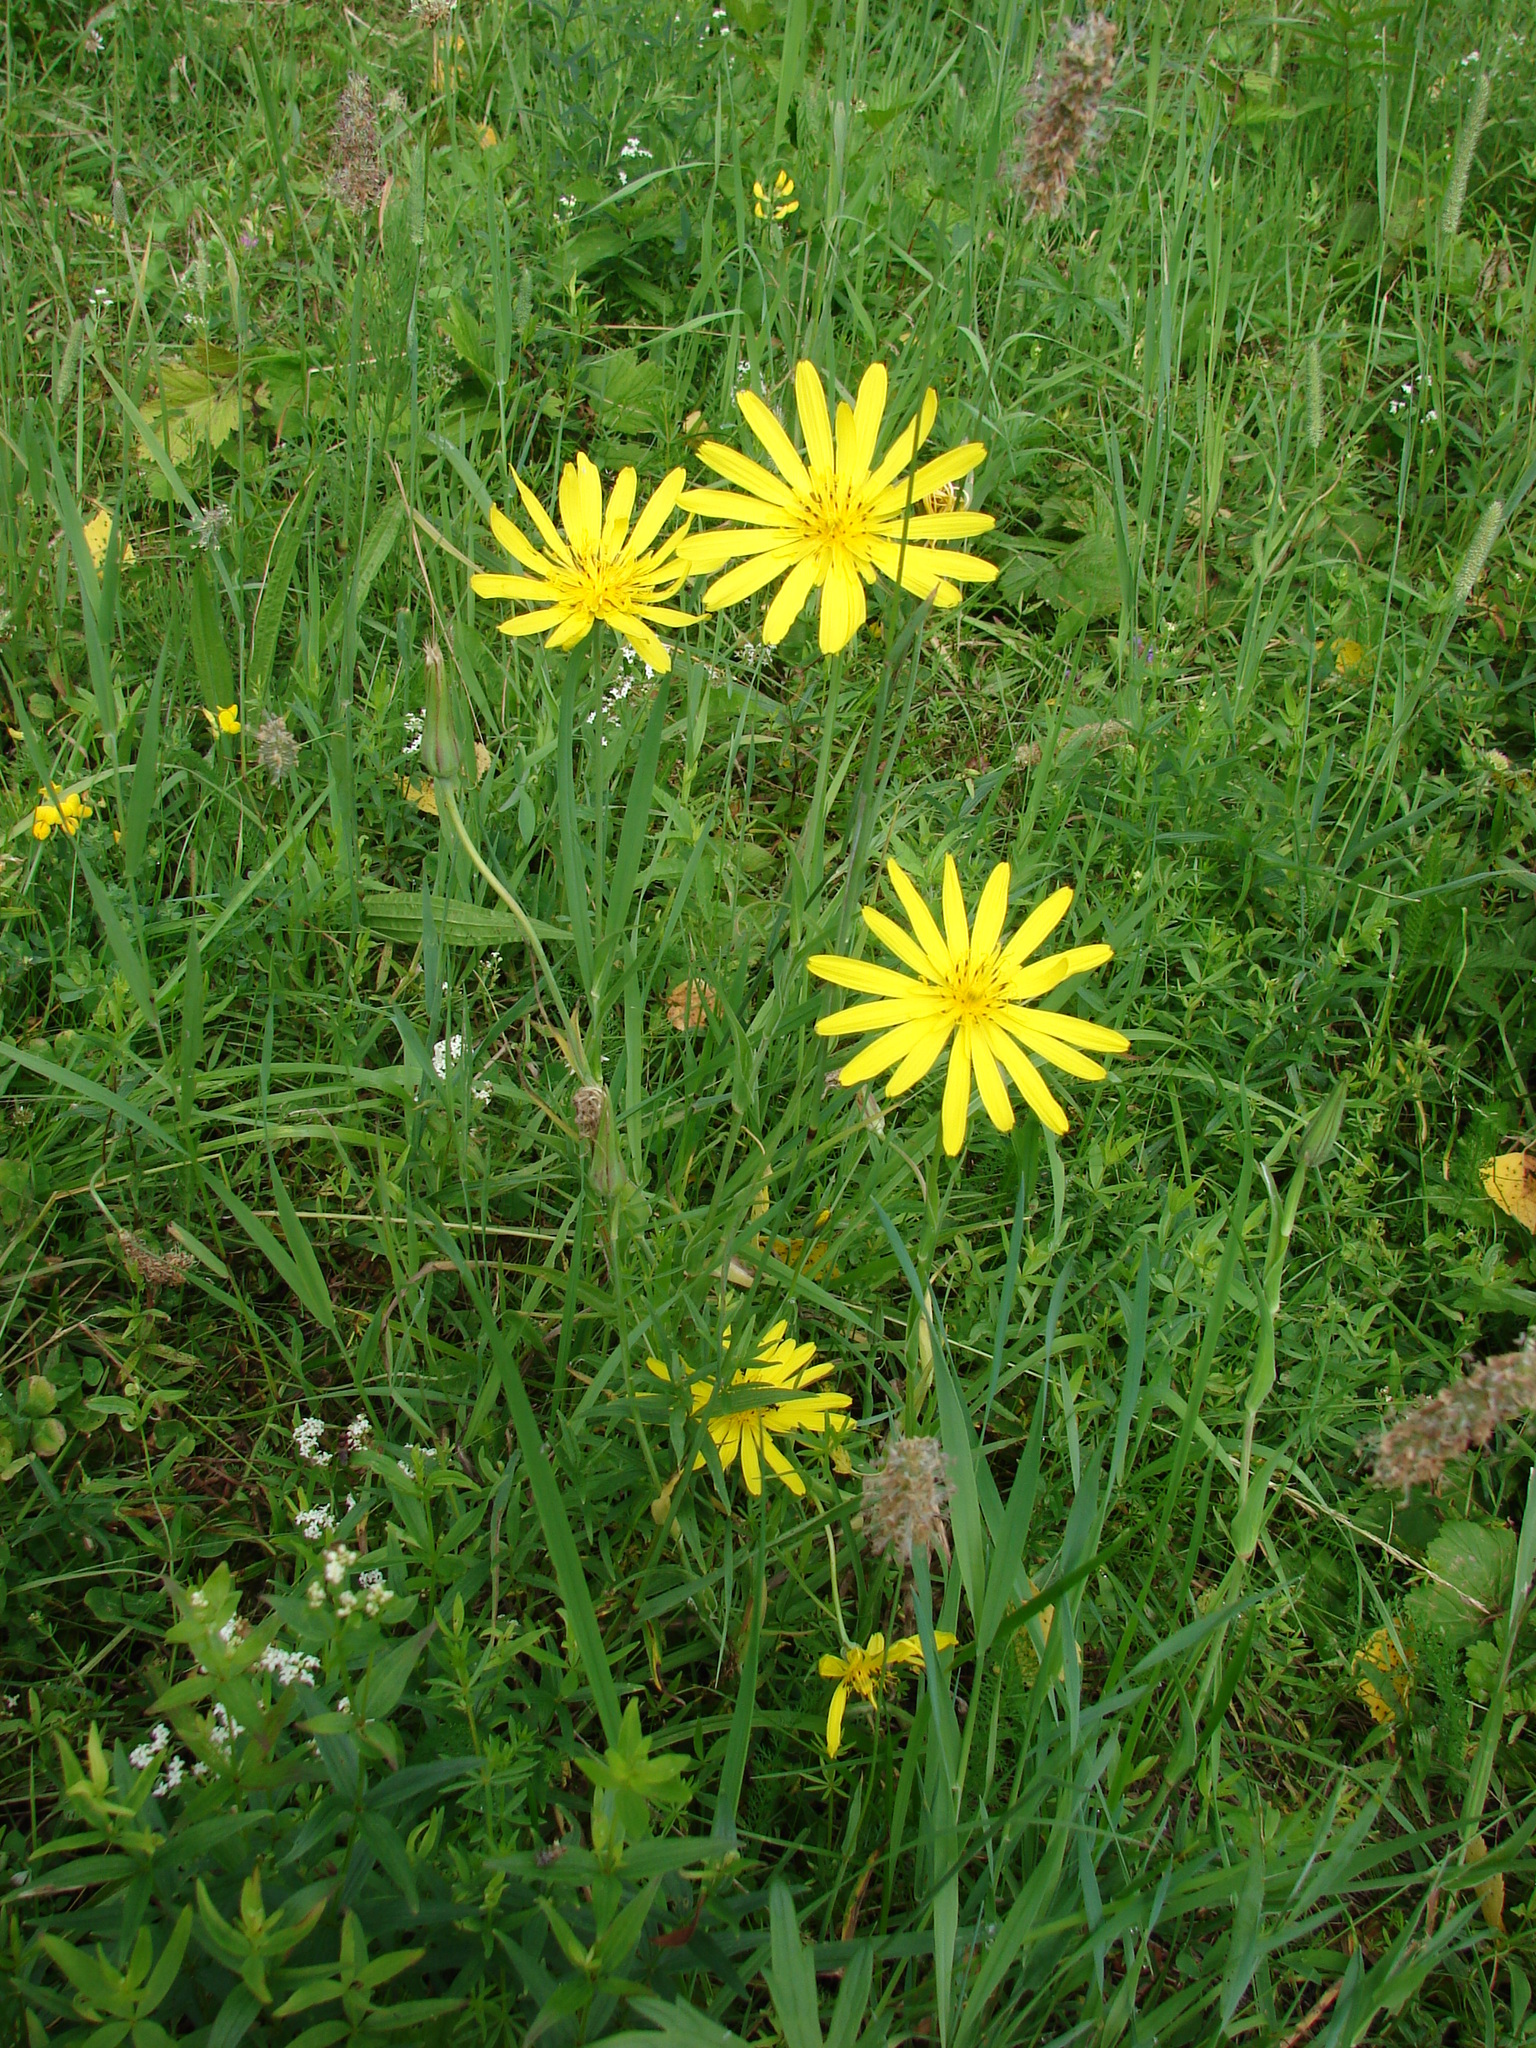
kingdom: Plantae
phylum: Tracheophyta
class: Magnoliopsida
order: Asterales
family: Asteraceae
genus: Tragopogon
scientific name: Tragopogon orientalis
